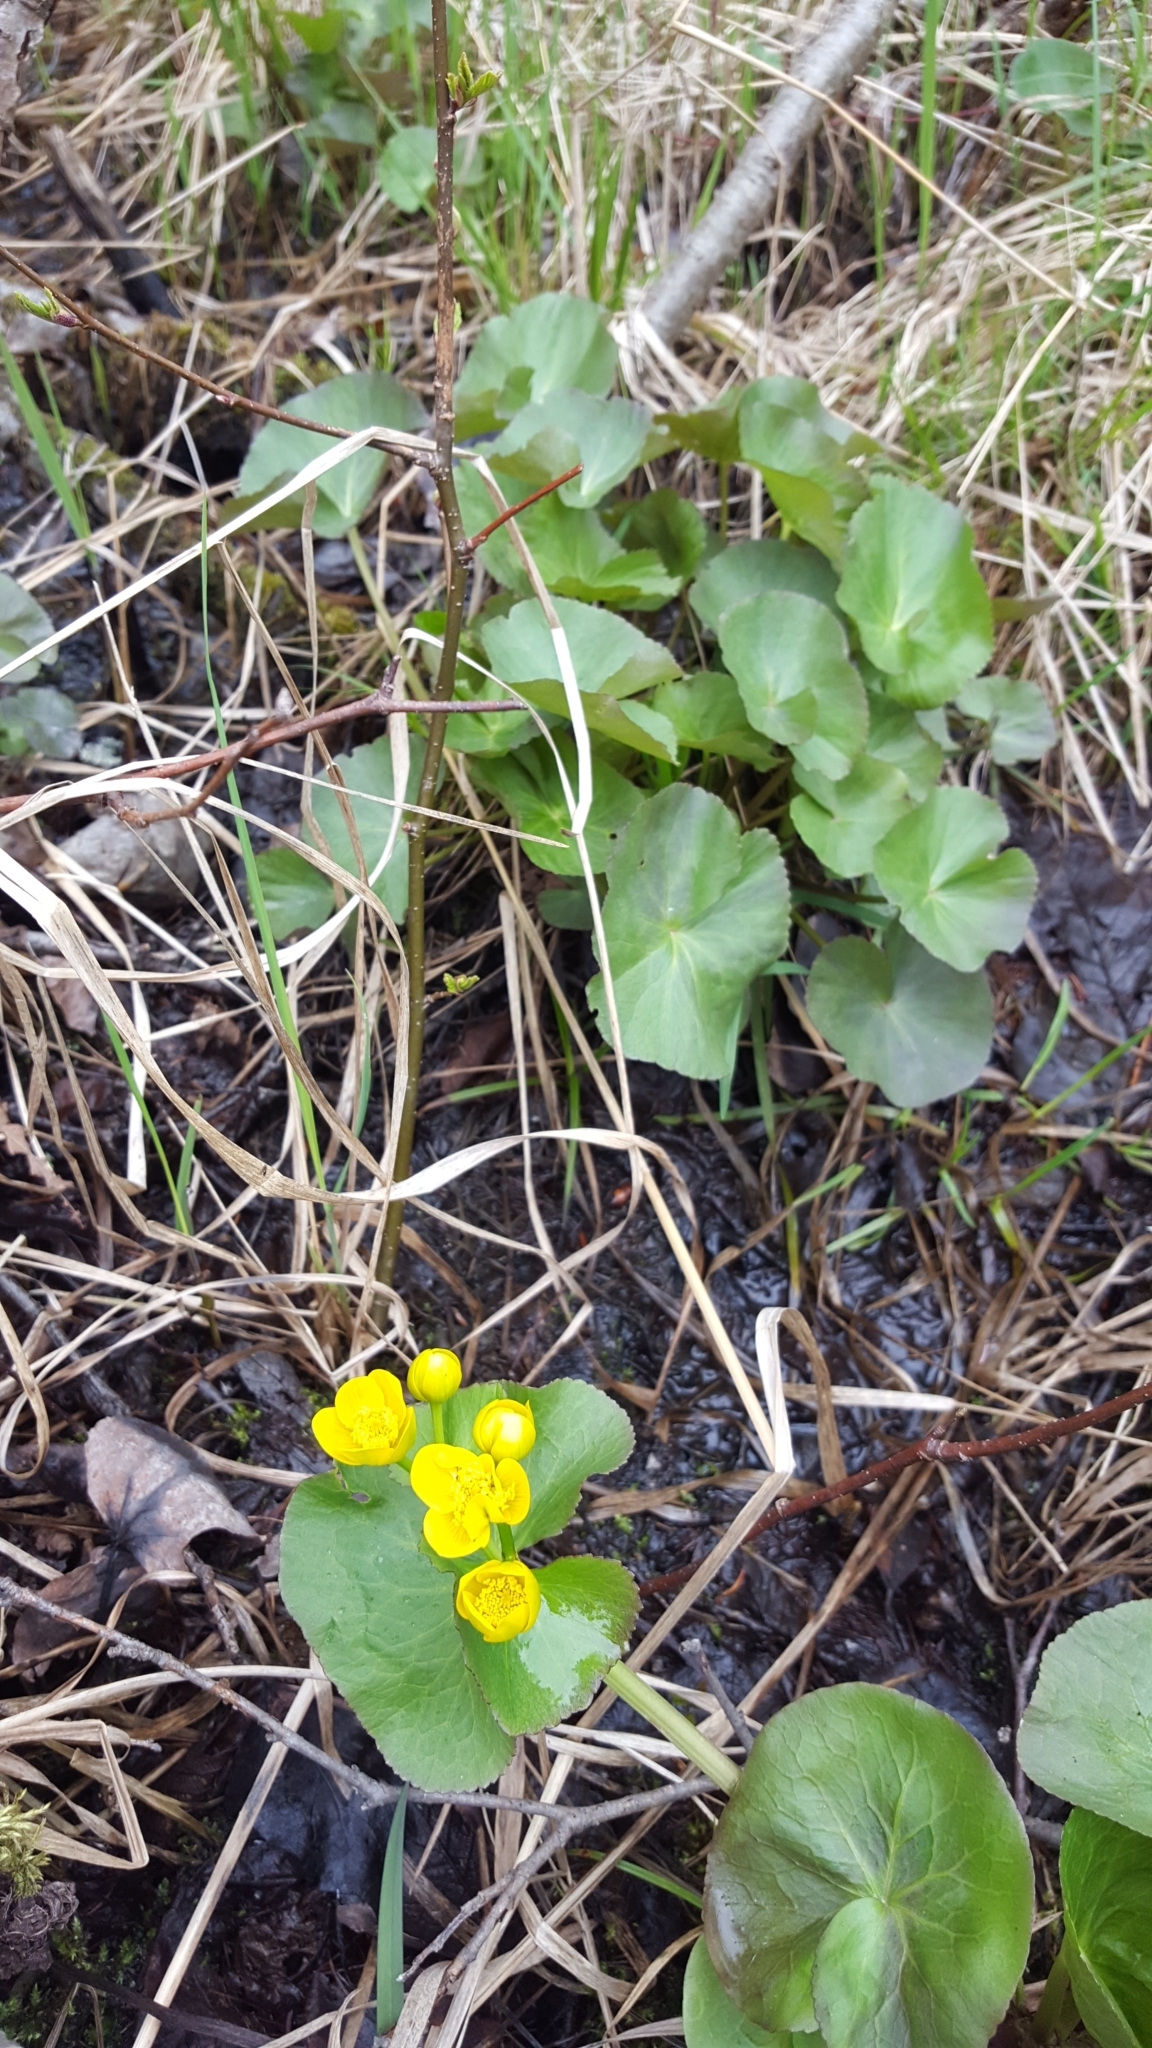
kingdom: Plantae
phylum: Tracheophyta
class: Magnoliopsida
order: Ranunculales
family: Ranunculaceae
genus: Caltha
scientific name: Caltha palustris
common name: Marsh marigold
